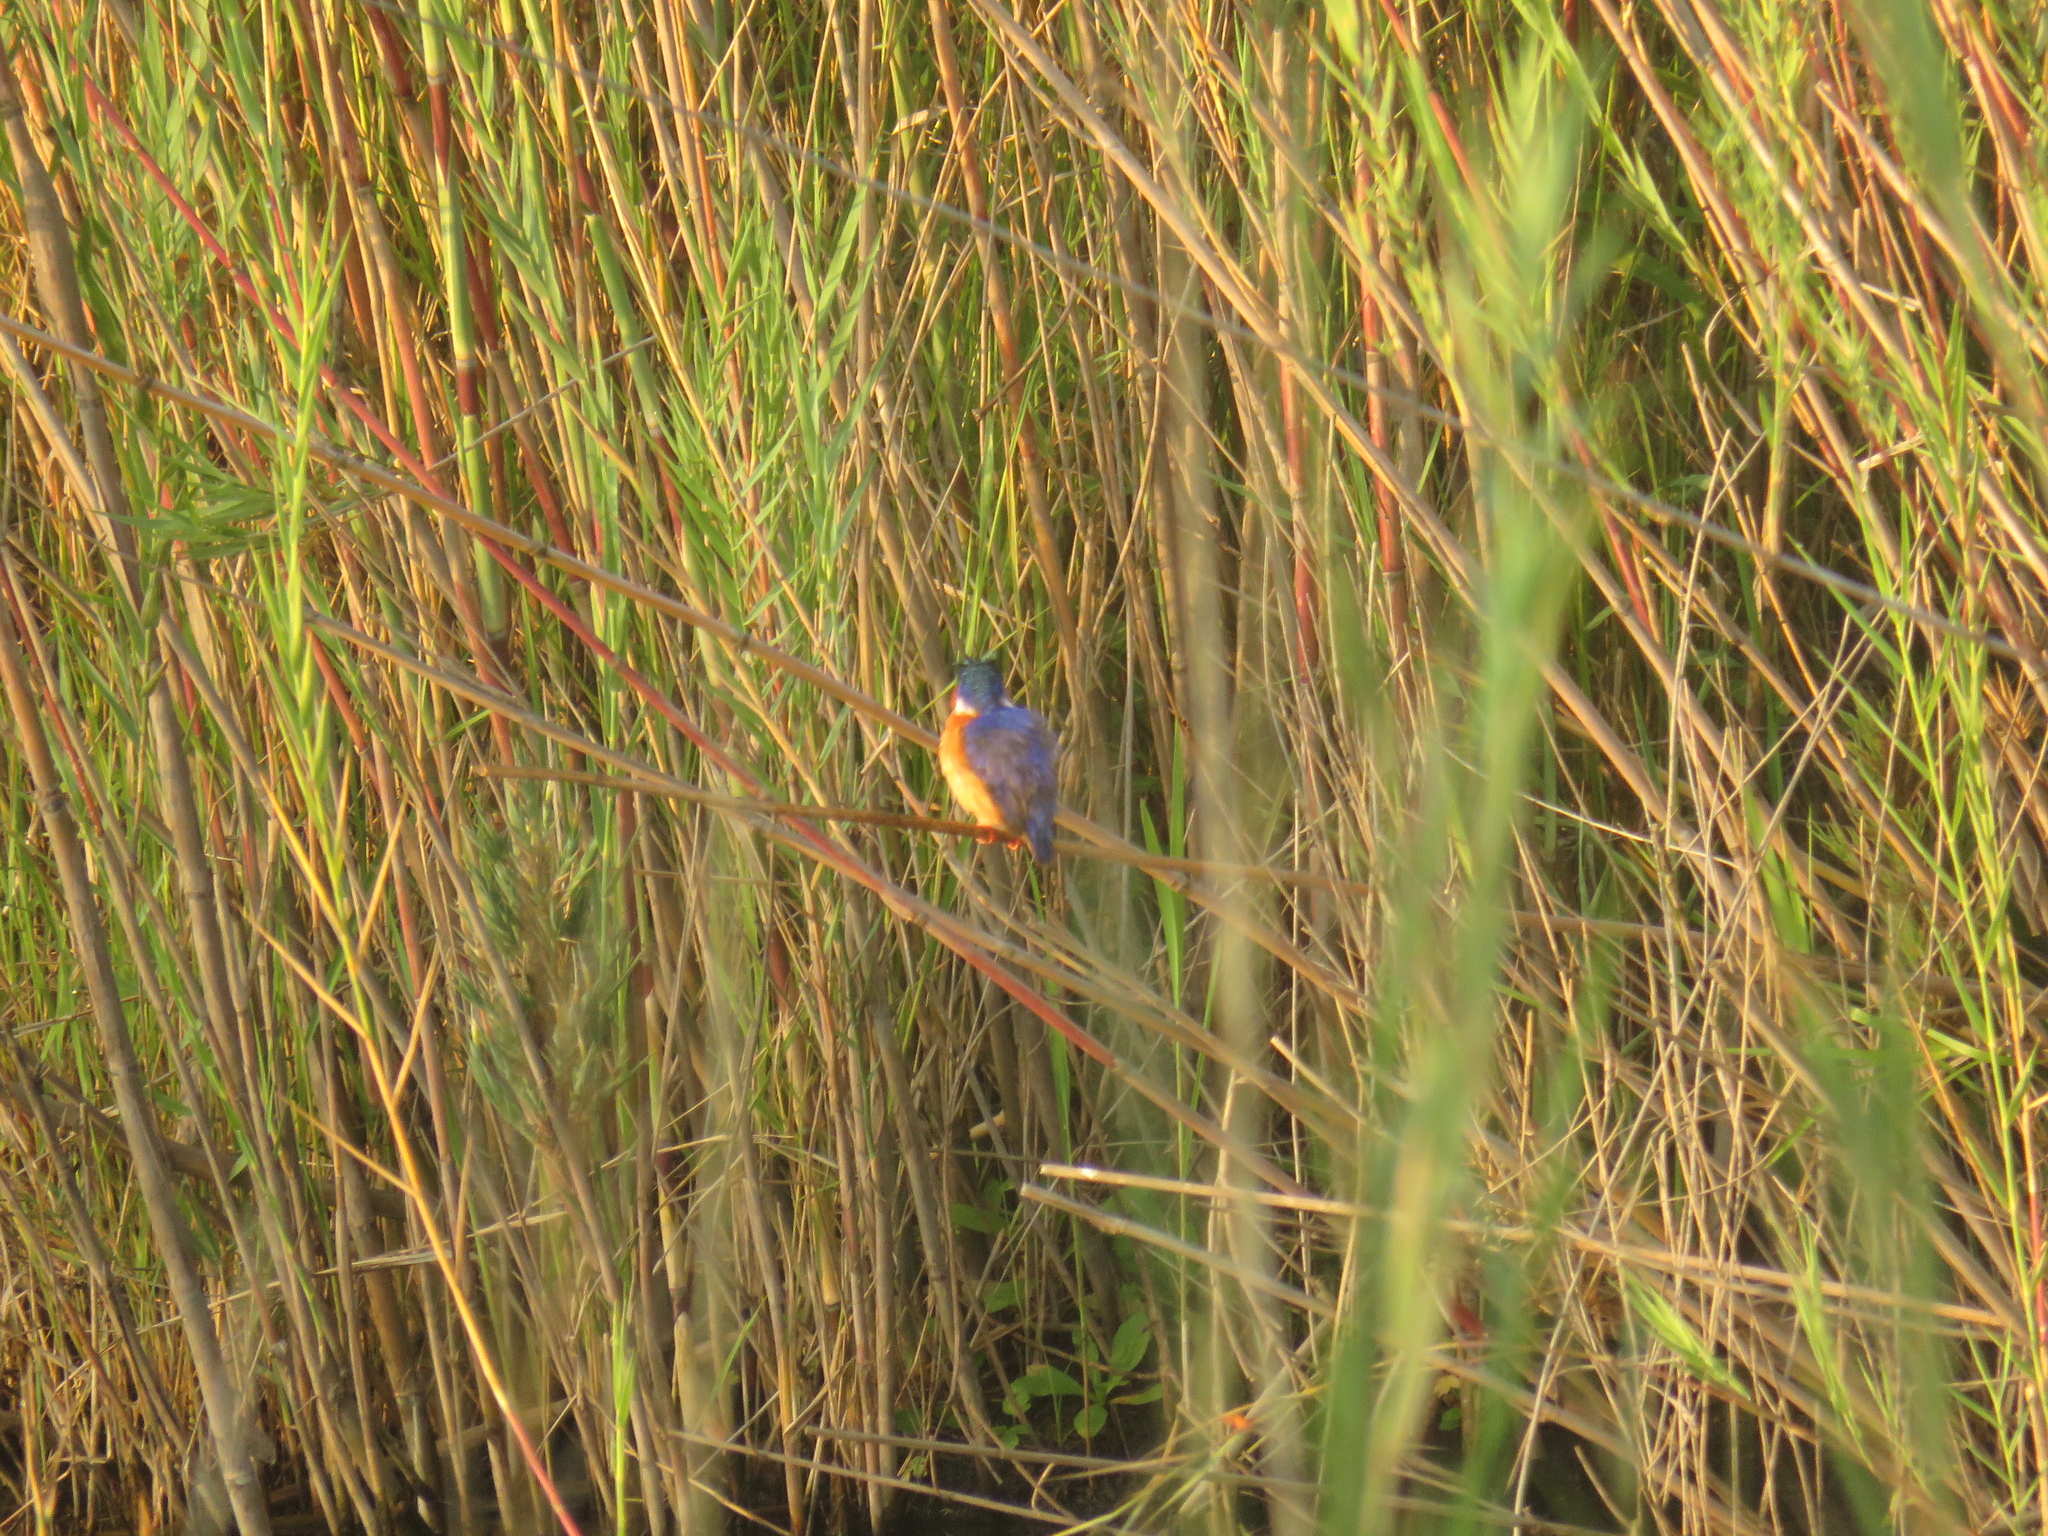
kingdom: Animalia
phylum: Chordata
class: Aves
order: Coraciiformes
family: Alcedinidae
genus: Corythornis
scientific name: Corythornis cristatus
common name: Malachite kingfisher
